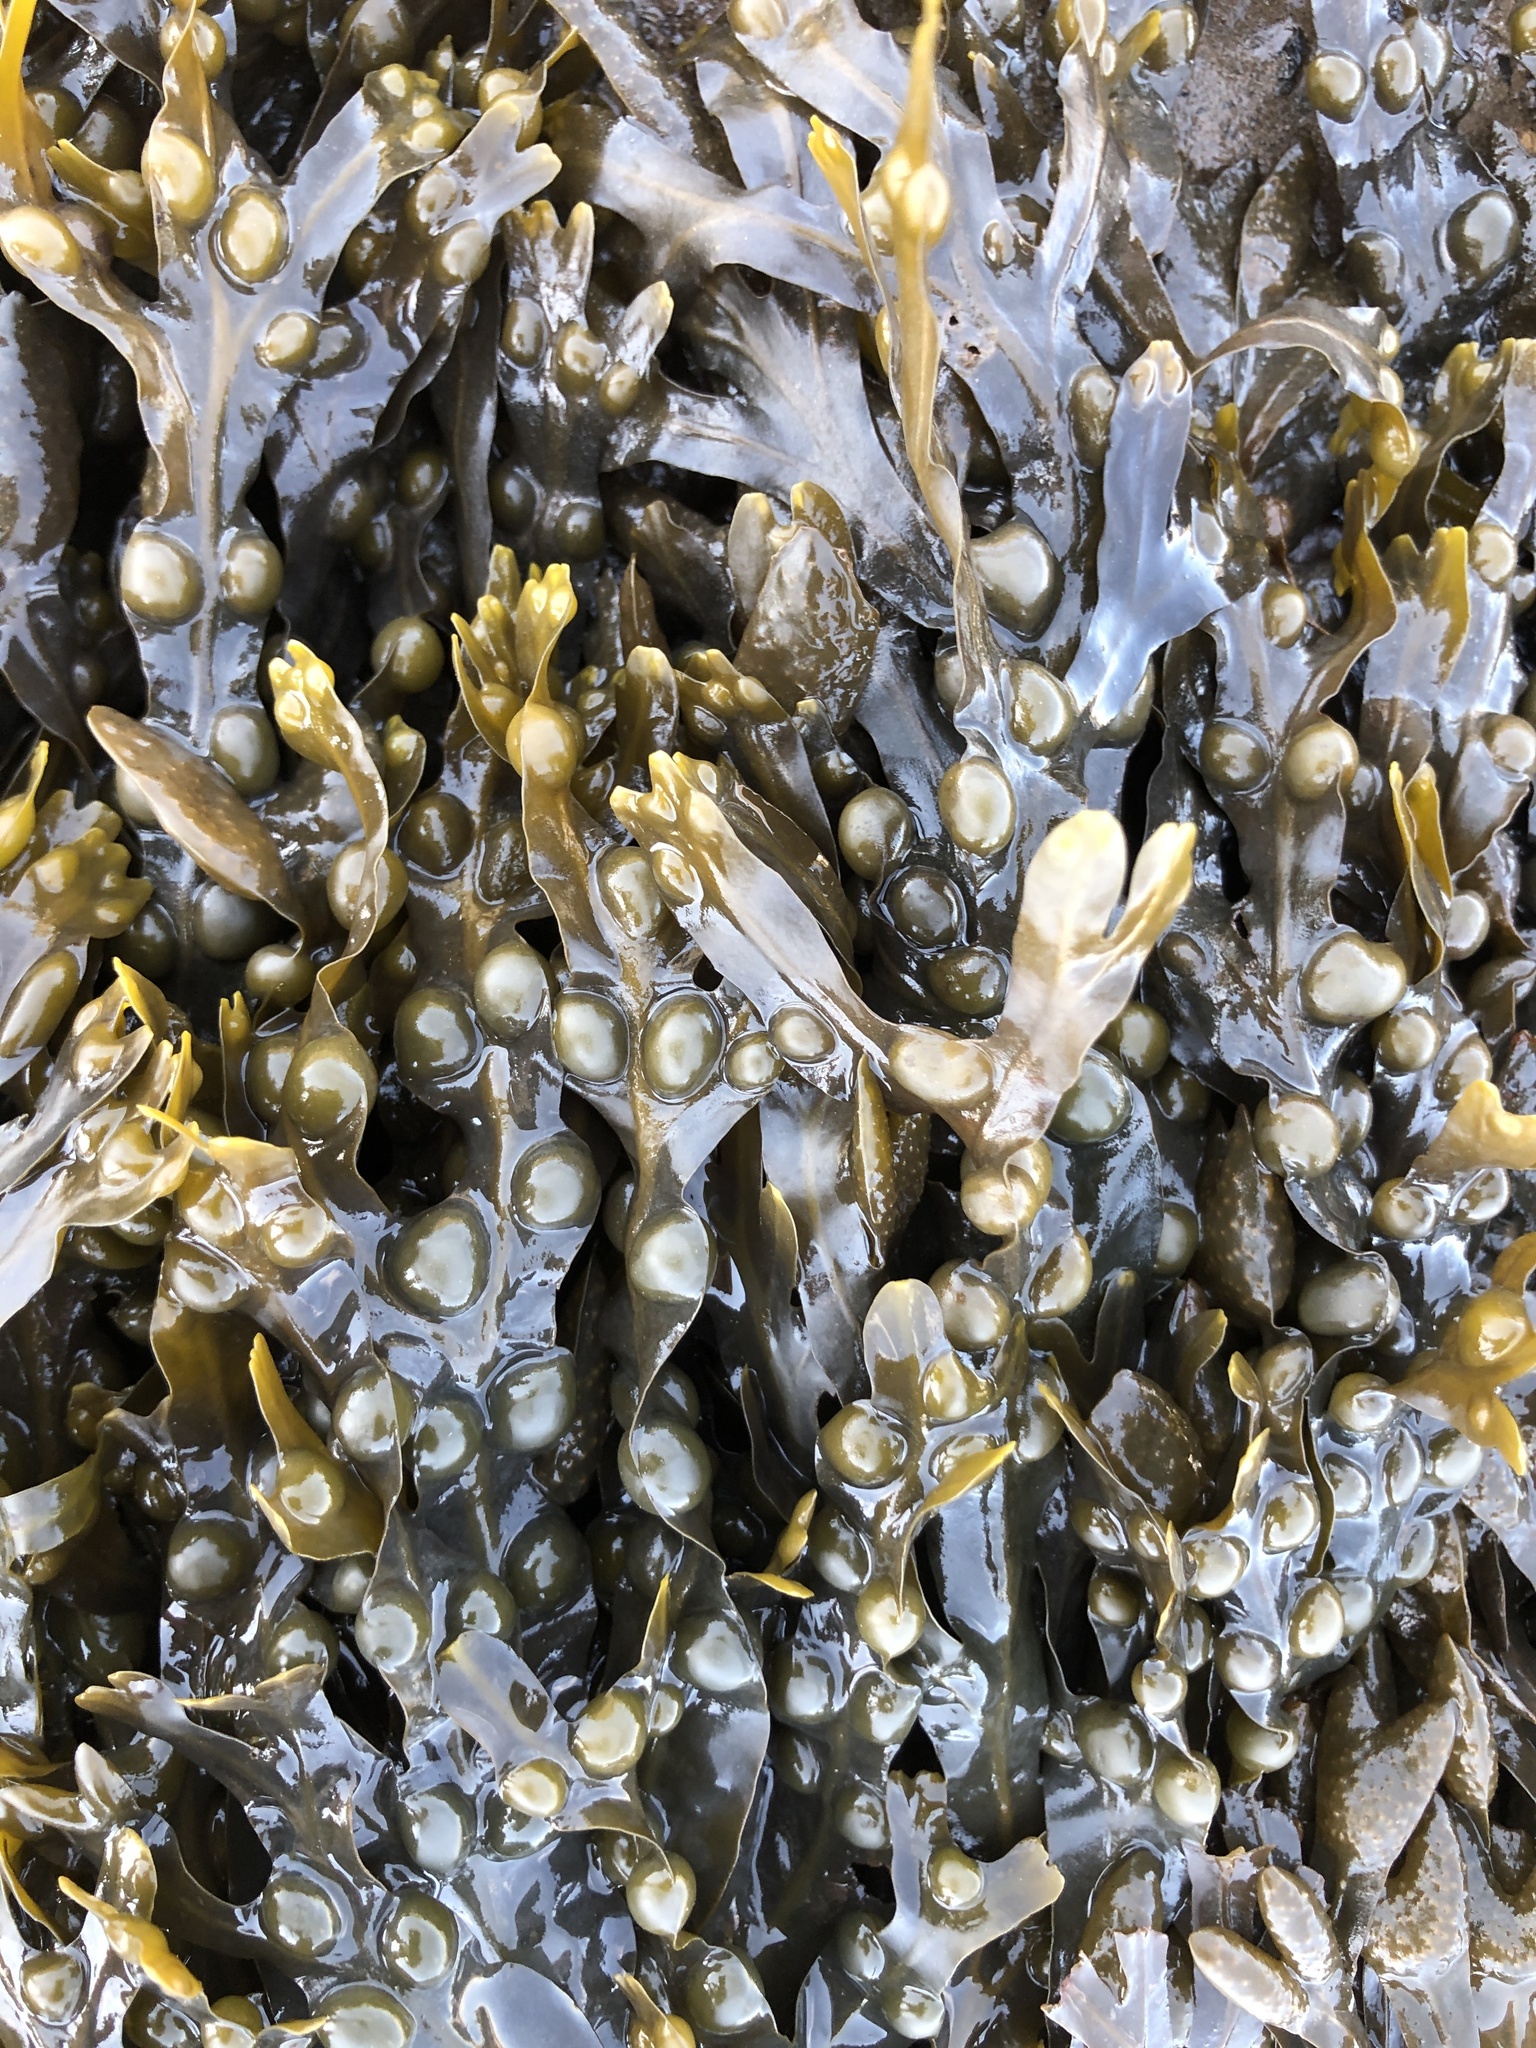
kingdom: Chromista
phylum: Ochrophyta
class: Phaeophyceae
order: Fucales
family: Fucaceae
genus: Fucus
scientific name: Fucus vesiculosus
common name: Bladder wrack
